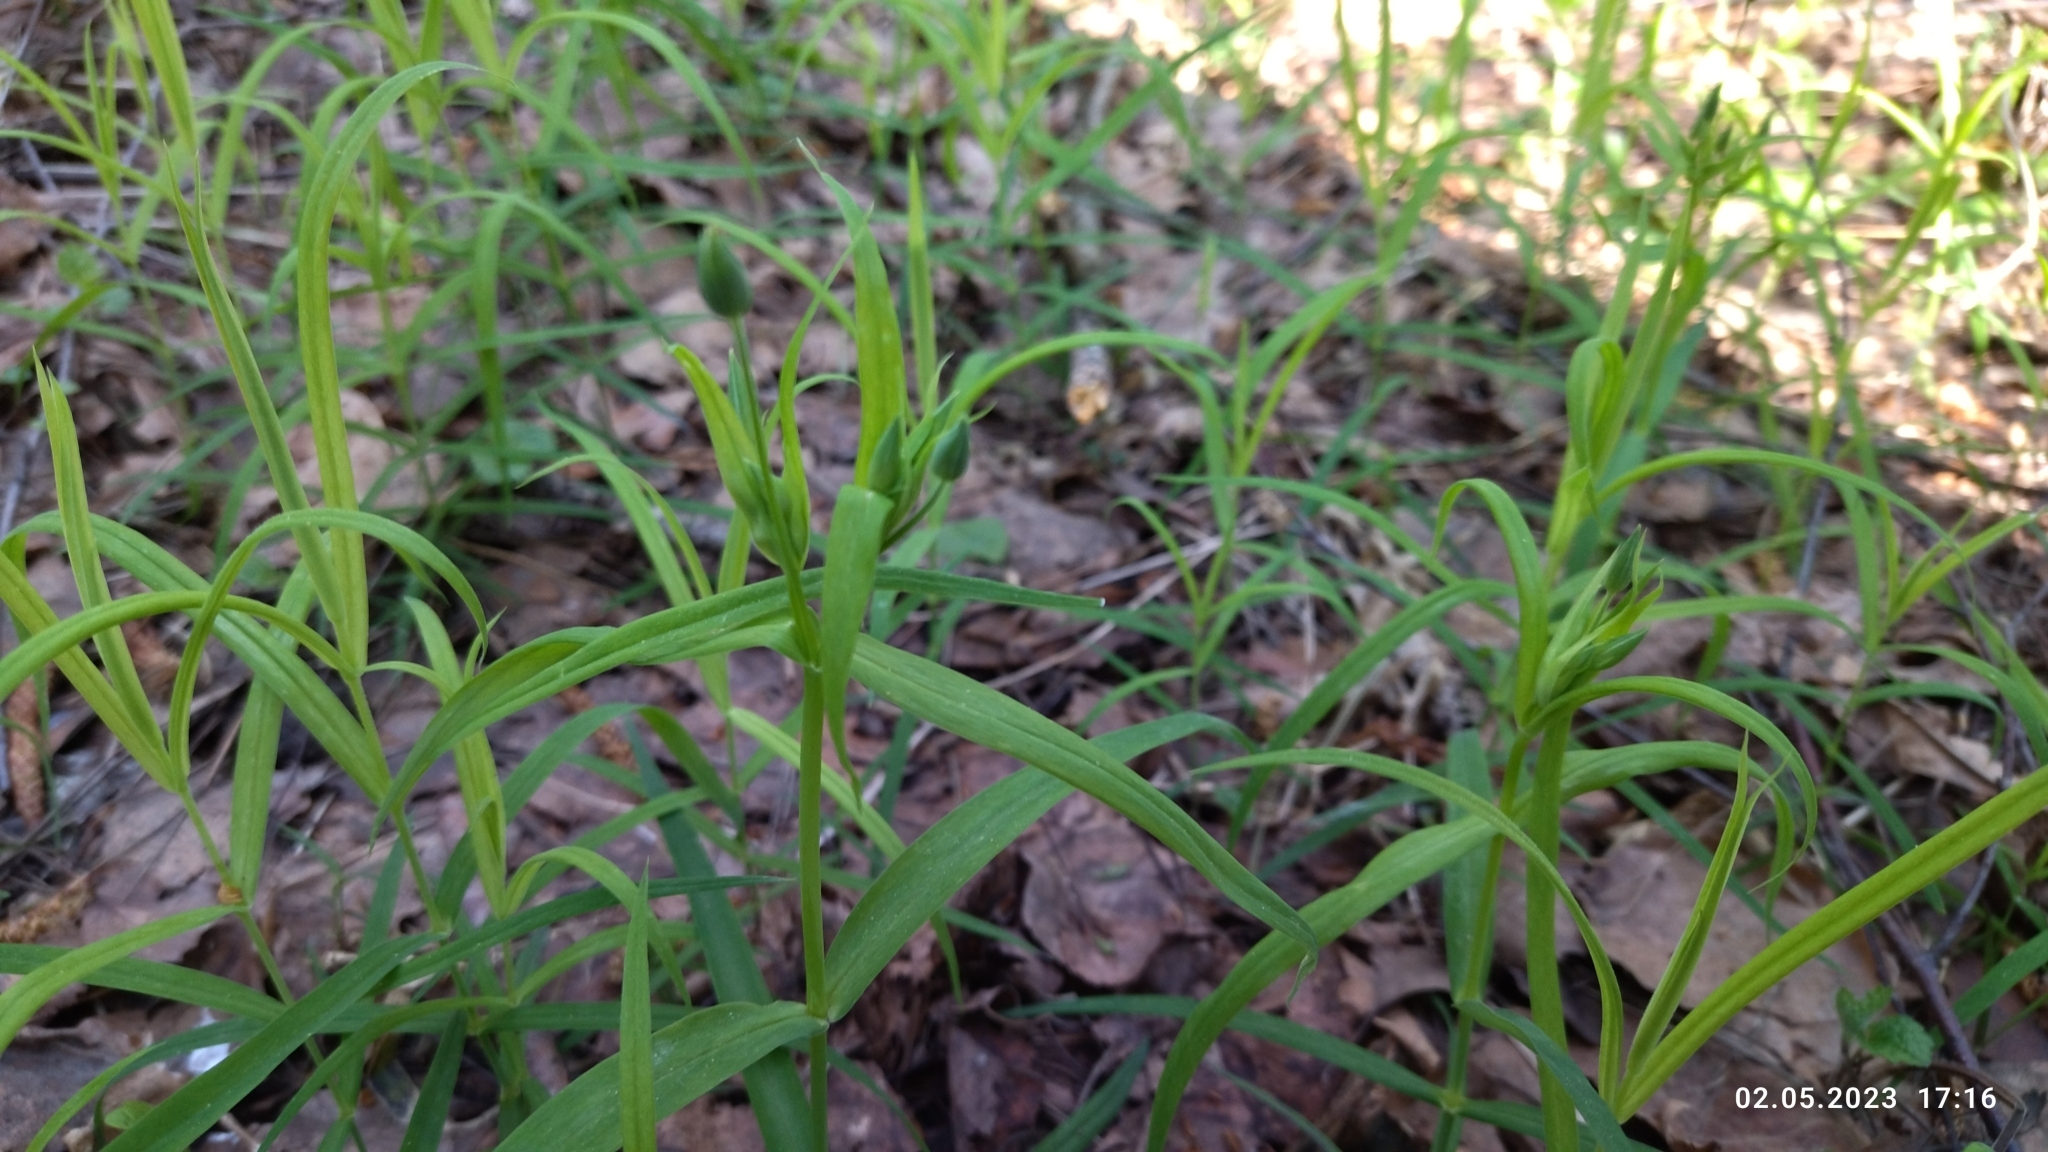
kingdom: Plantae
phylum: Tracheophyta
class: Magnoliopsida
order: Caryophyllales
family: Caryophyllaceae
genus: Rabelera
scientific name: Rabelera holostea
